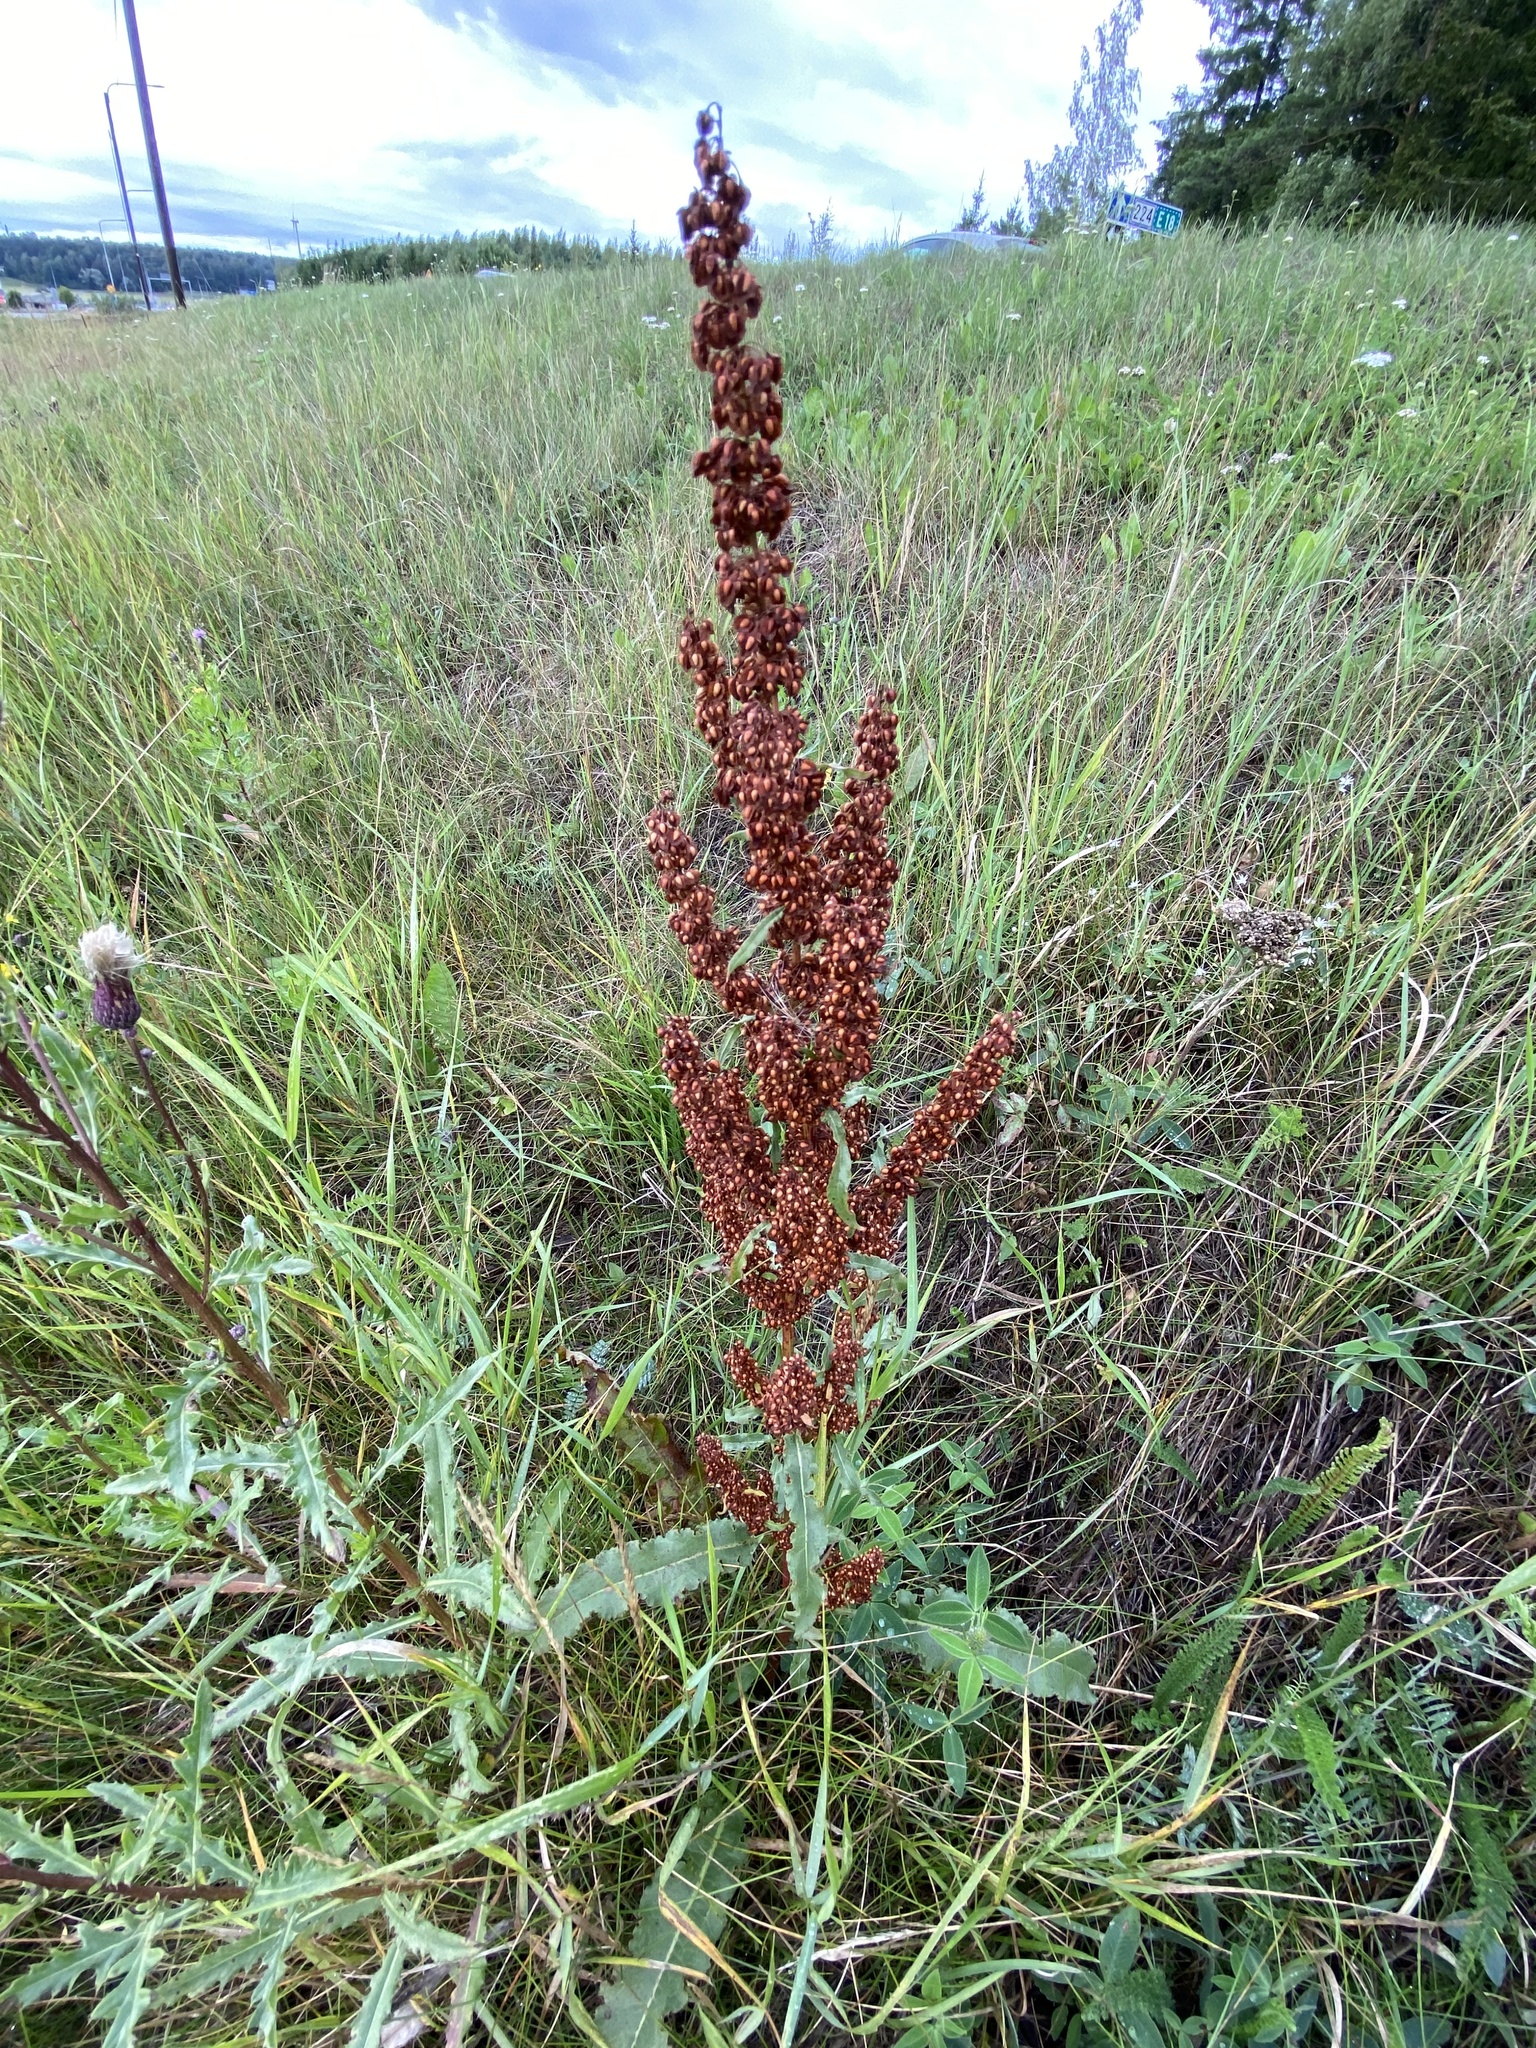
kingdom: Plantae
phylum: Tracheophyta
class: Magnoliopsida
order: Caryophyllales
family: Polygonaceae
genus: Rumex
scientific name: Rumex crispus
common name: Curled dock
